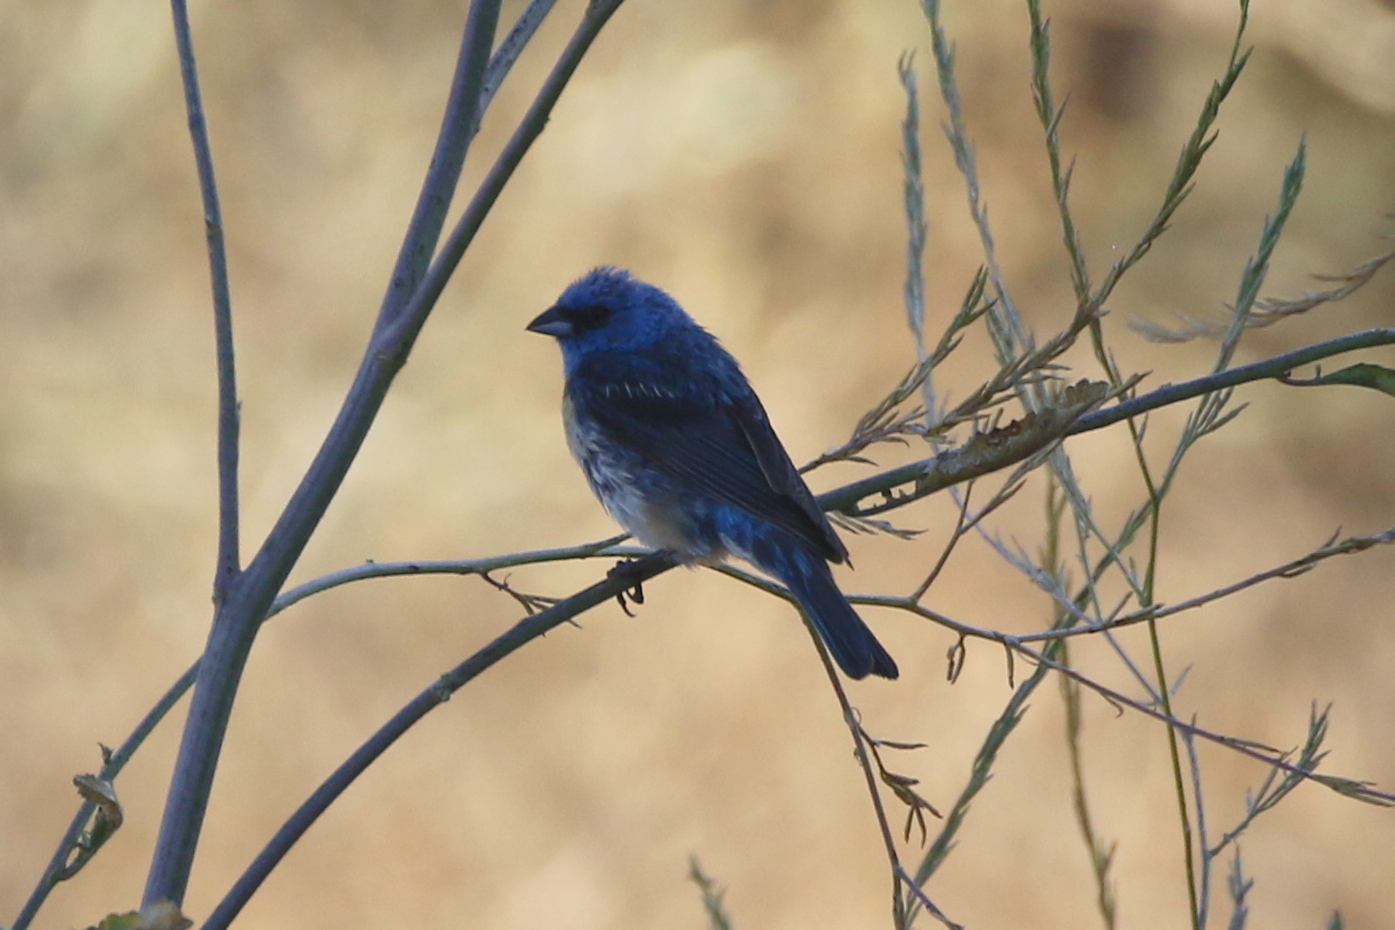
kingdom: Animalia
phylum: Chordata
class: Aves
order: Passeriformes
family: Cardinalidae
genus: Passerina
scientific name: Passerina amoena
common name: Lazuli bunting
